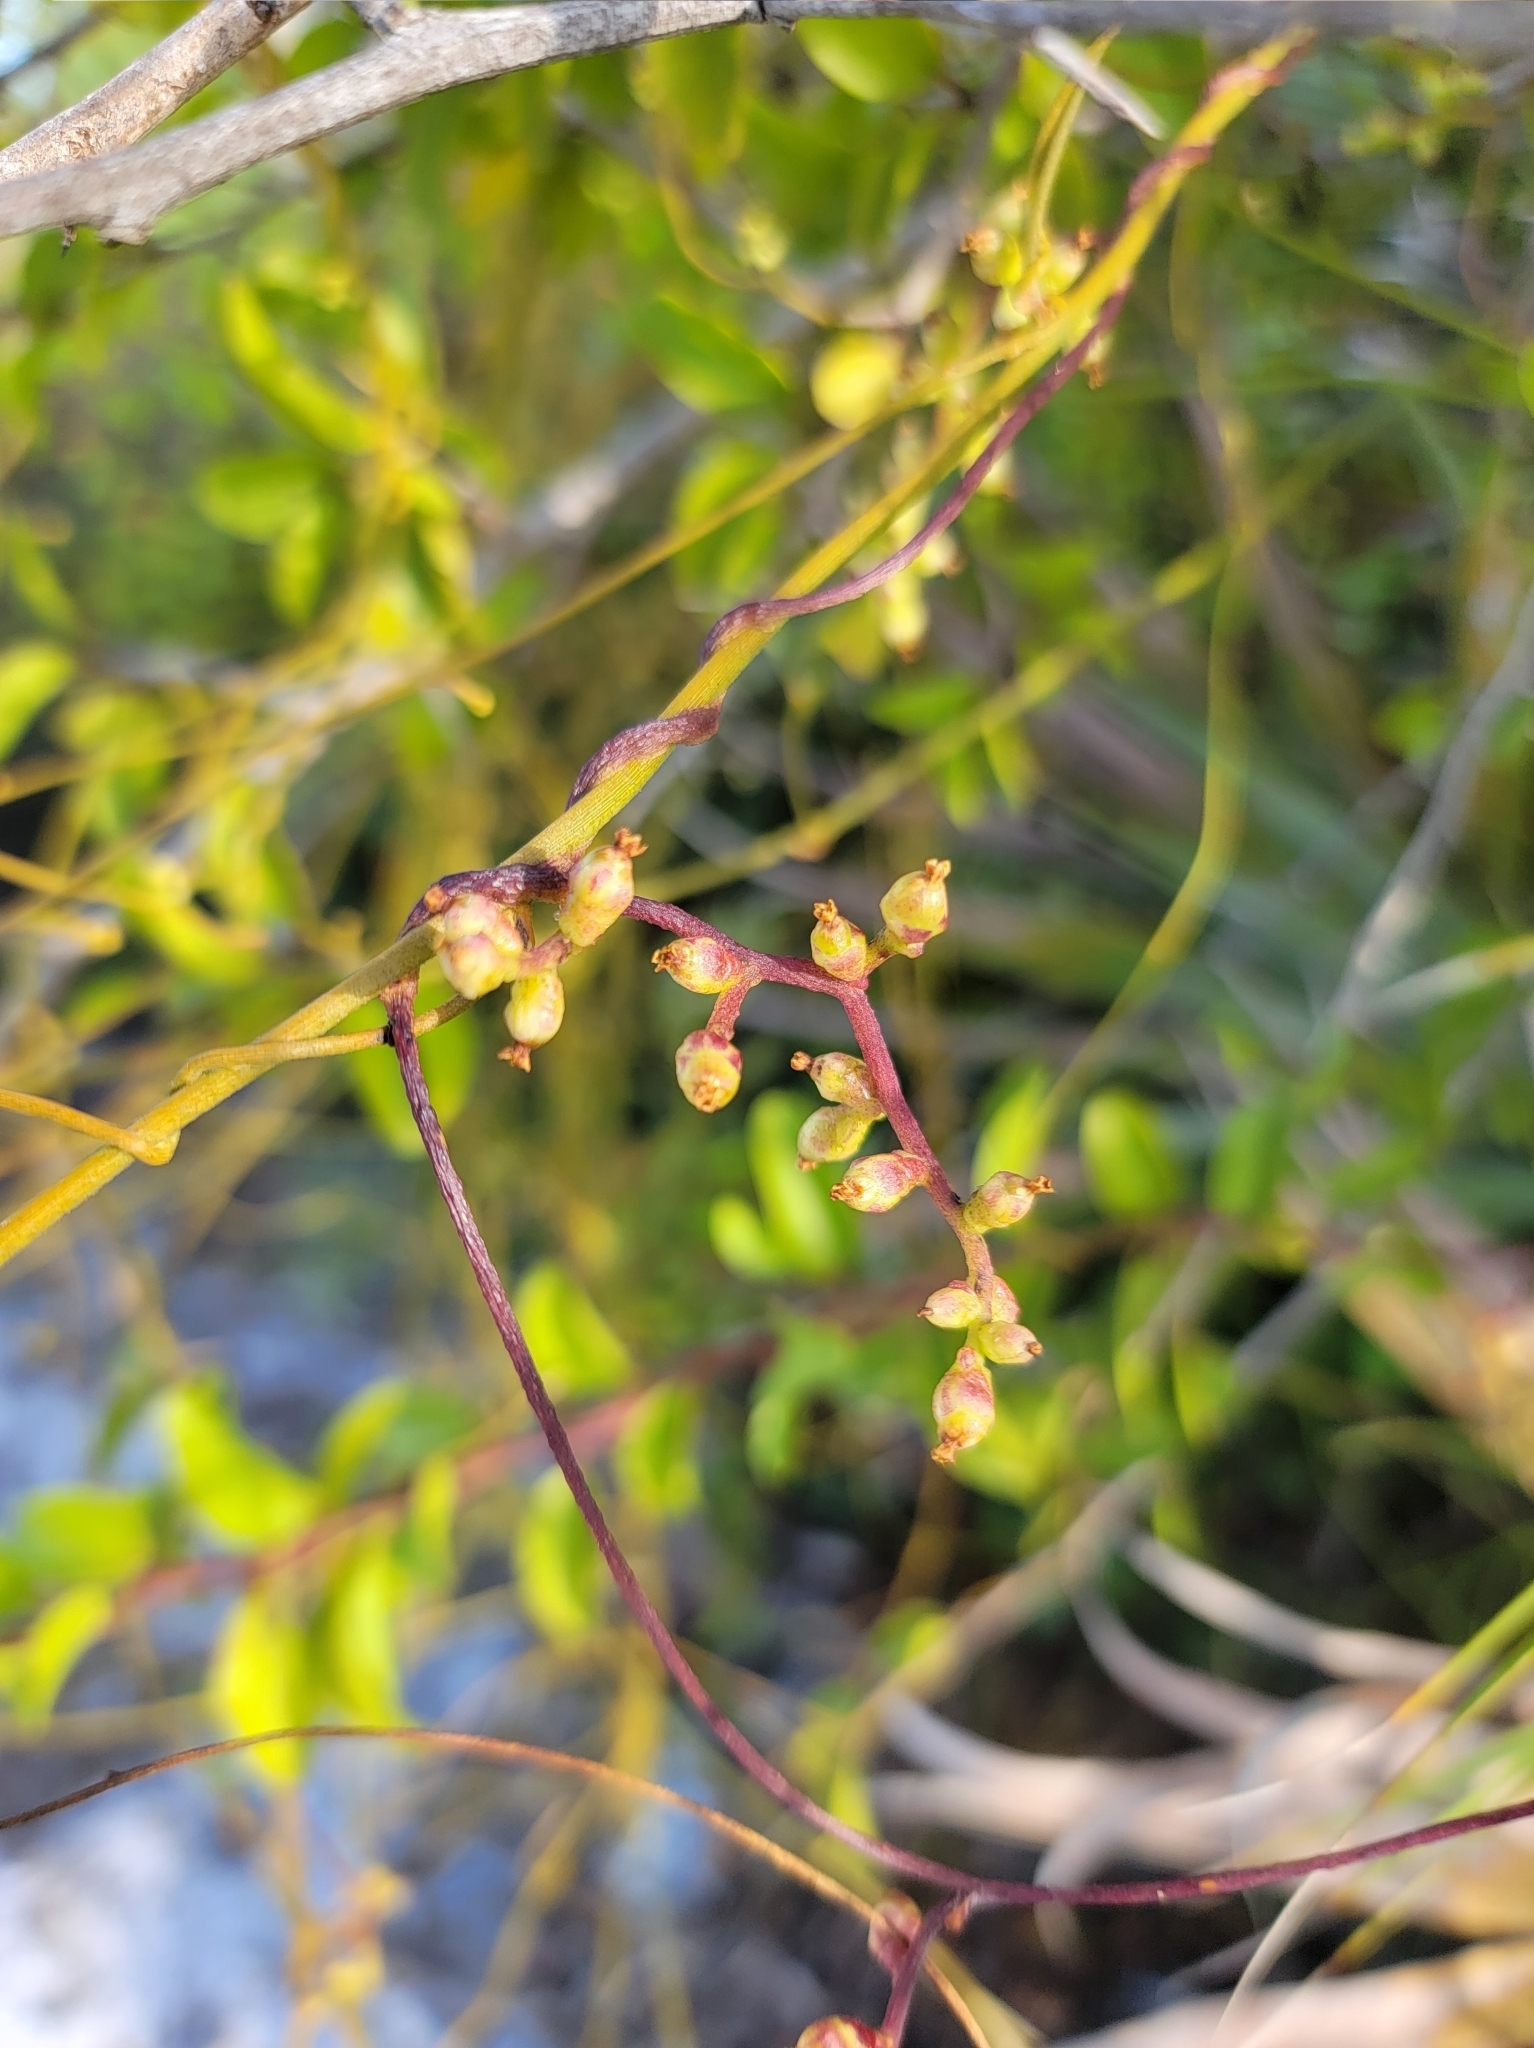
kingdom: Plantae
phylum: Tracheophyta
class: Magnoliopsida
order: Laurales
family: Lauraceae
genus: Cassytha
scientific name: Cassytha filiformis
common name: Dodder-laurel
